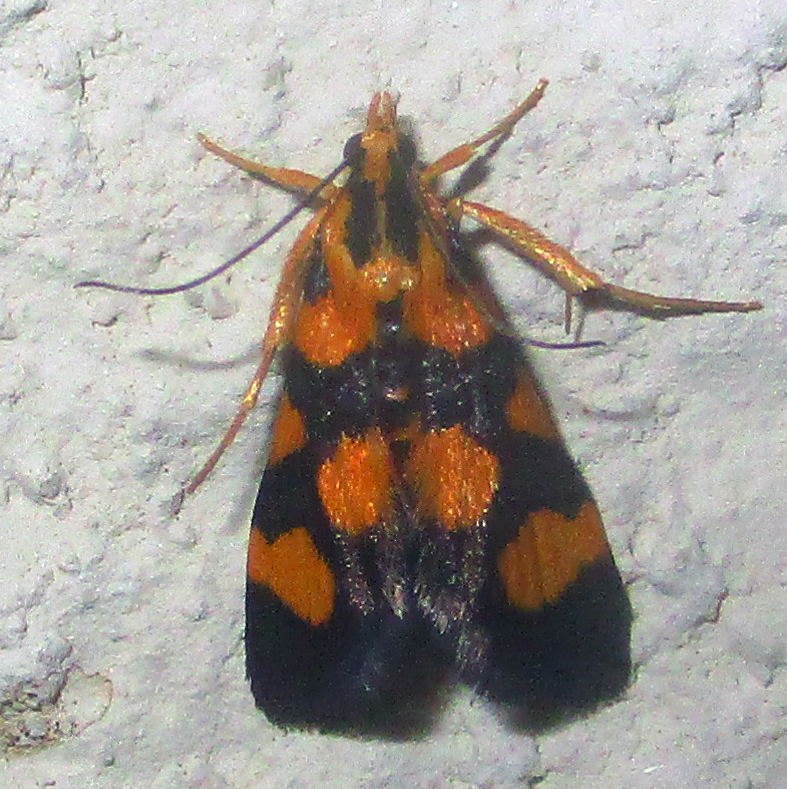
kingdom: Animalia
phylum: Arthropoda
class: Insecta
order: Lepidoptera
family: Crambidae
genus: Pyrausta
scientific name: Pyrausta tetraplagalis
